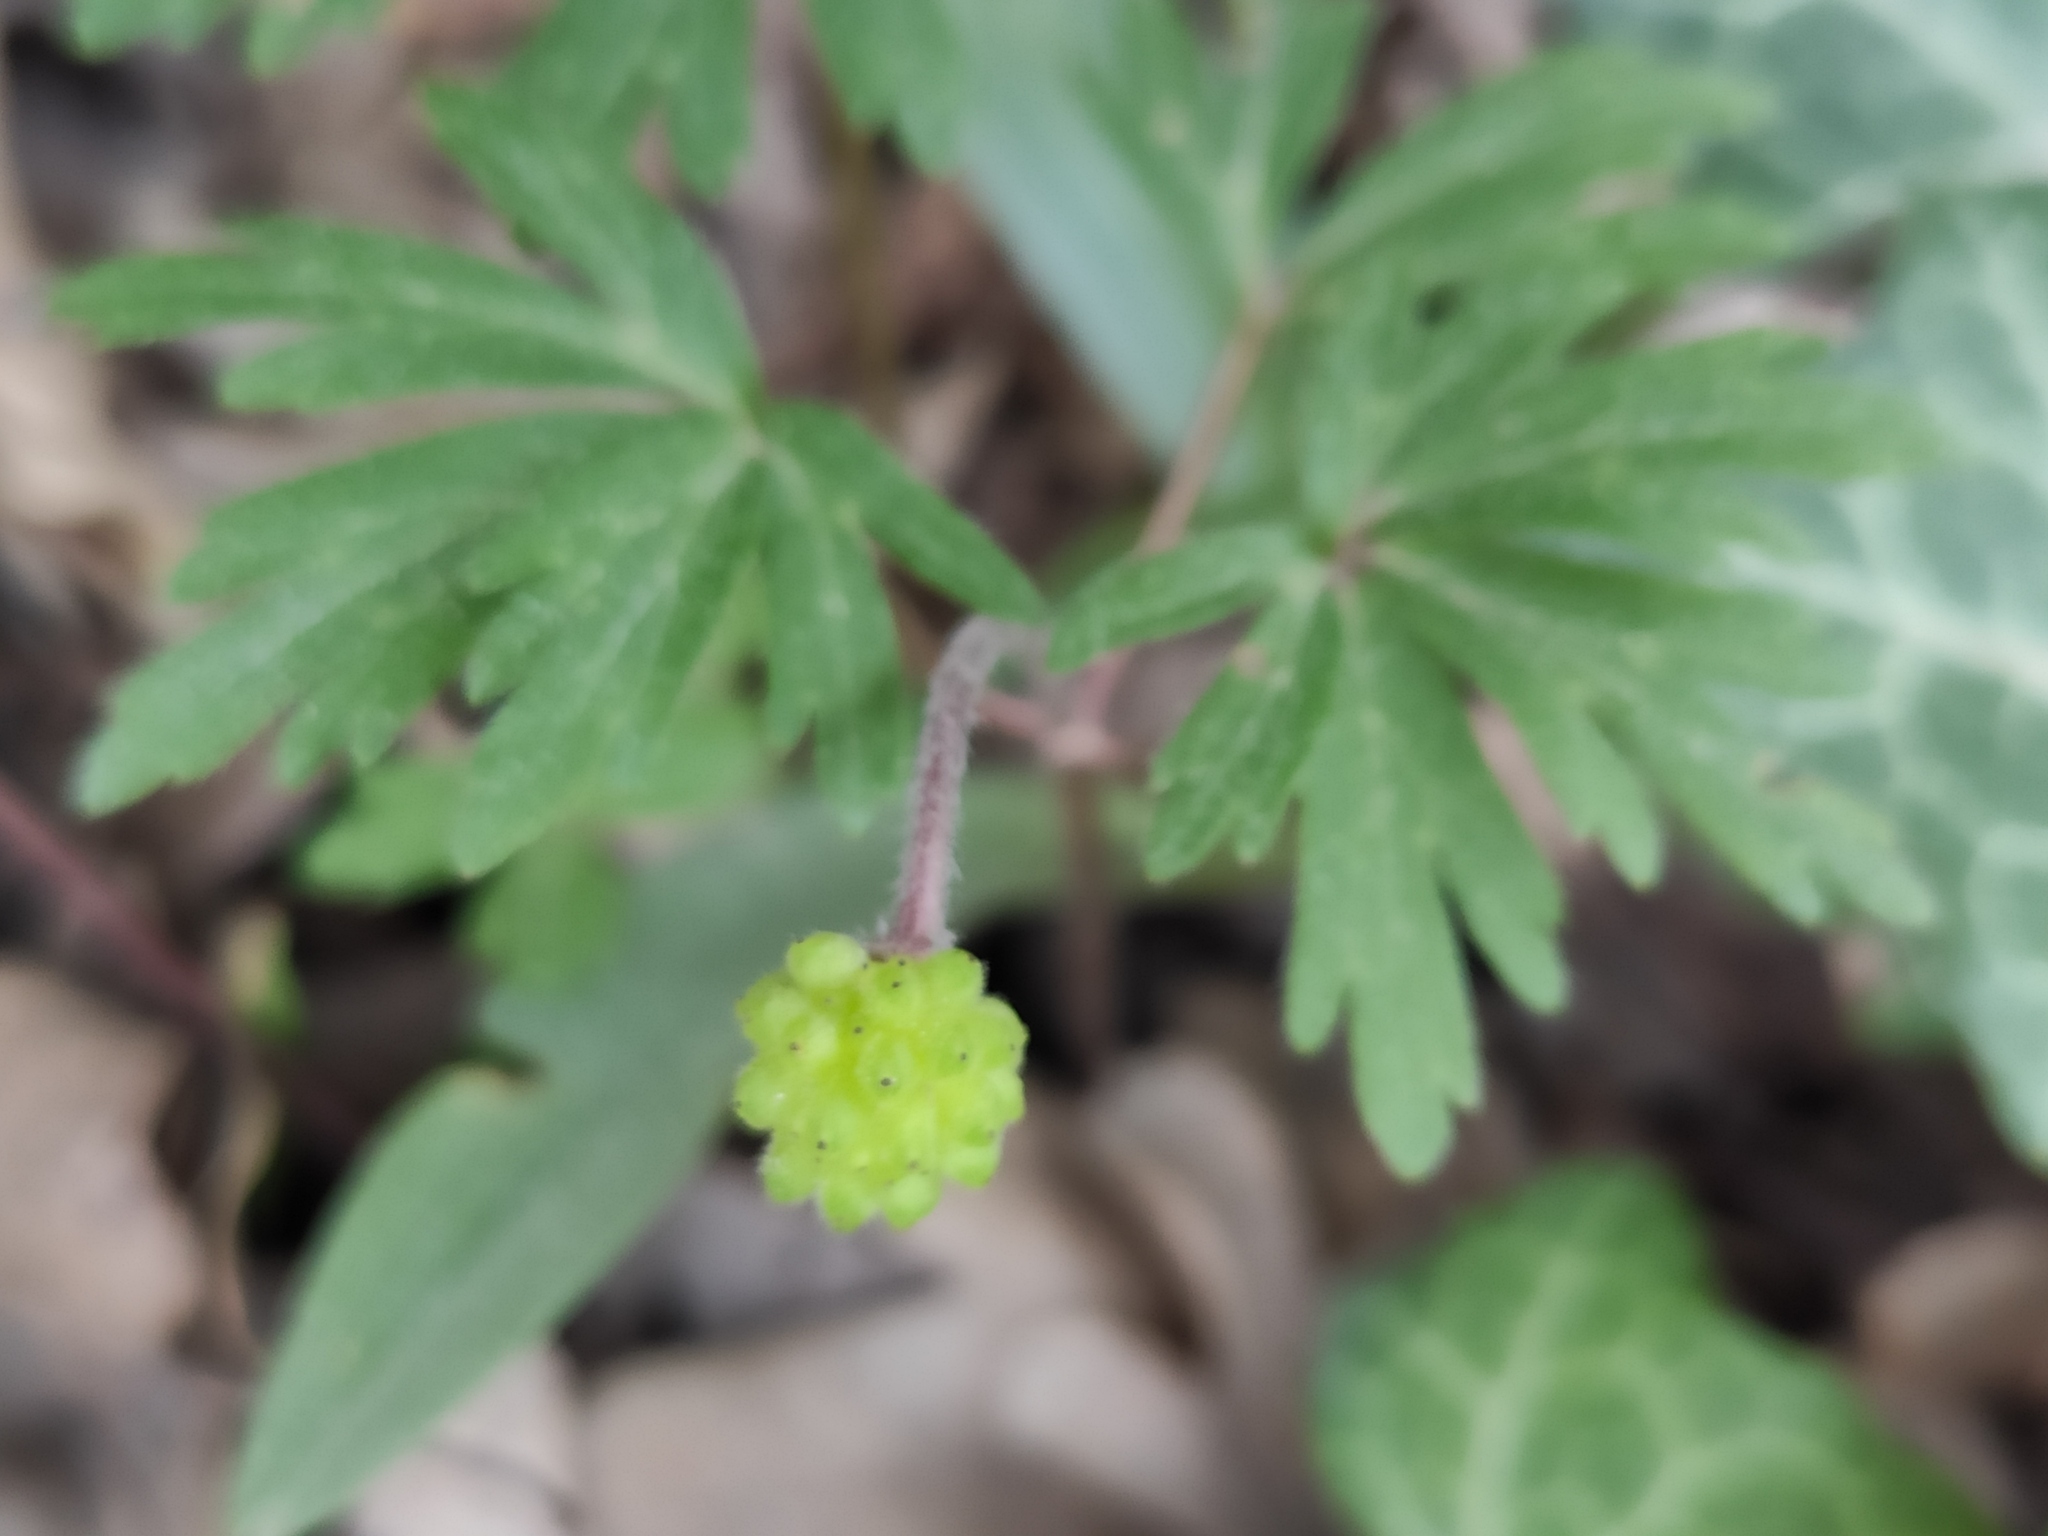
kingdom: Plantae
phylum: Tracheophyta
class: Magnoliopsida
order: Ranunculales
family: Ranunculaceae
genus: Anemone
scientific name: Anemone blanda
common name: Balkan anemone
